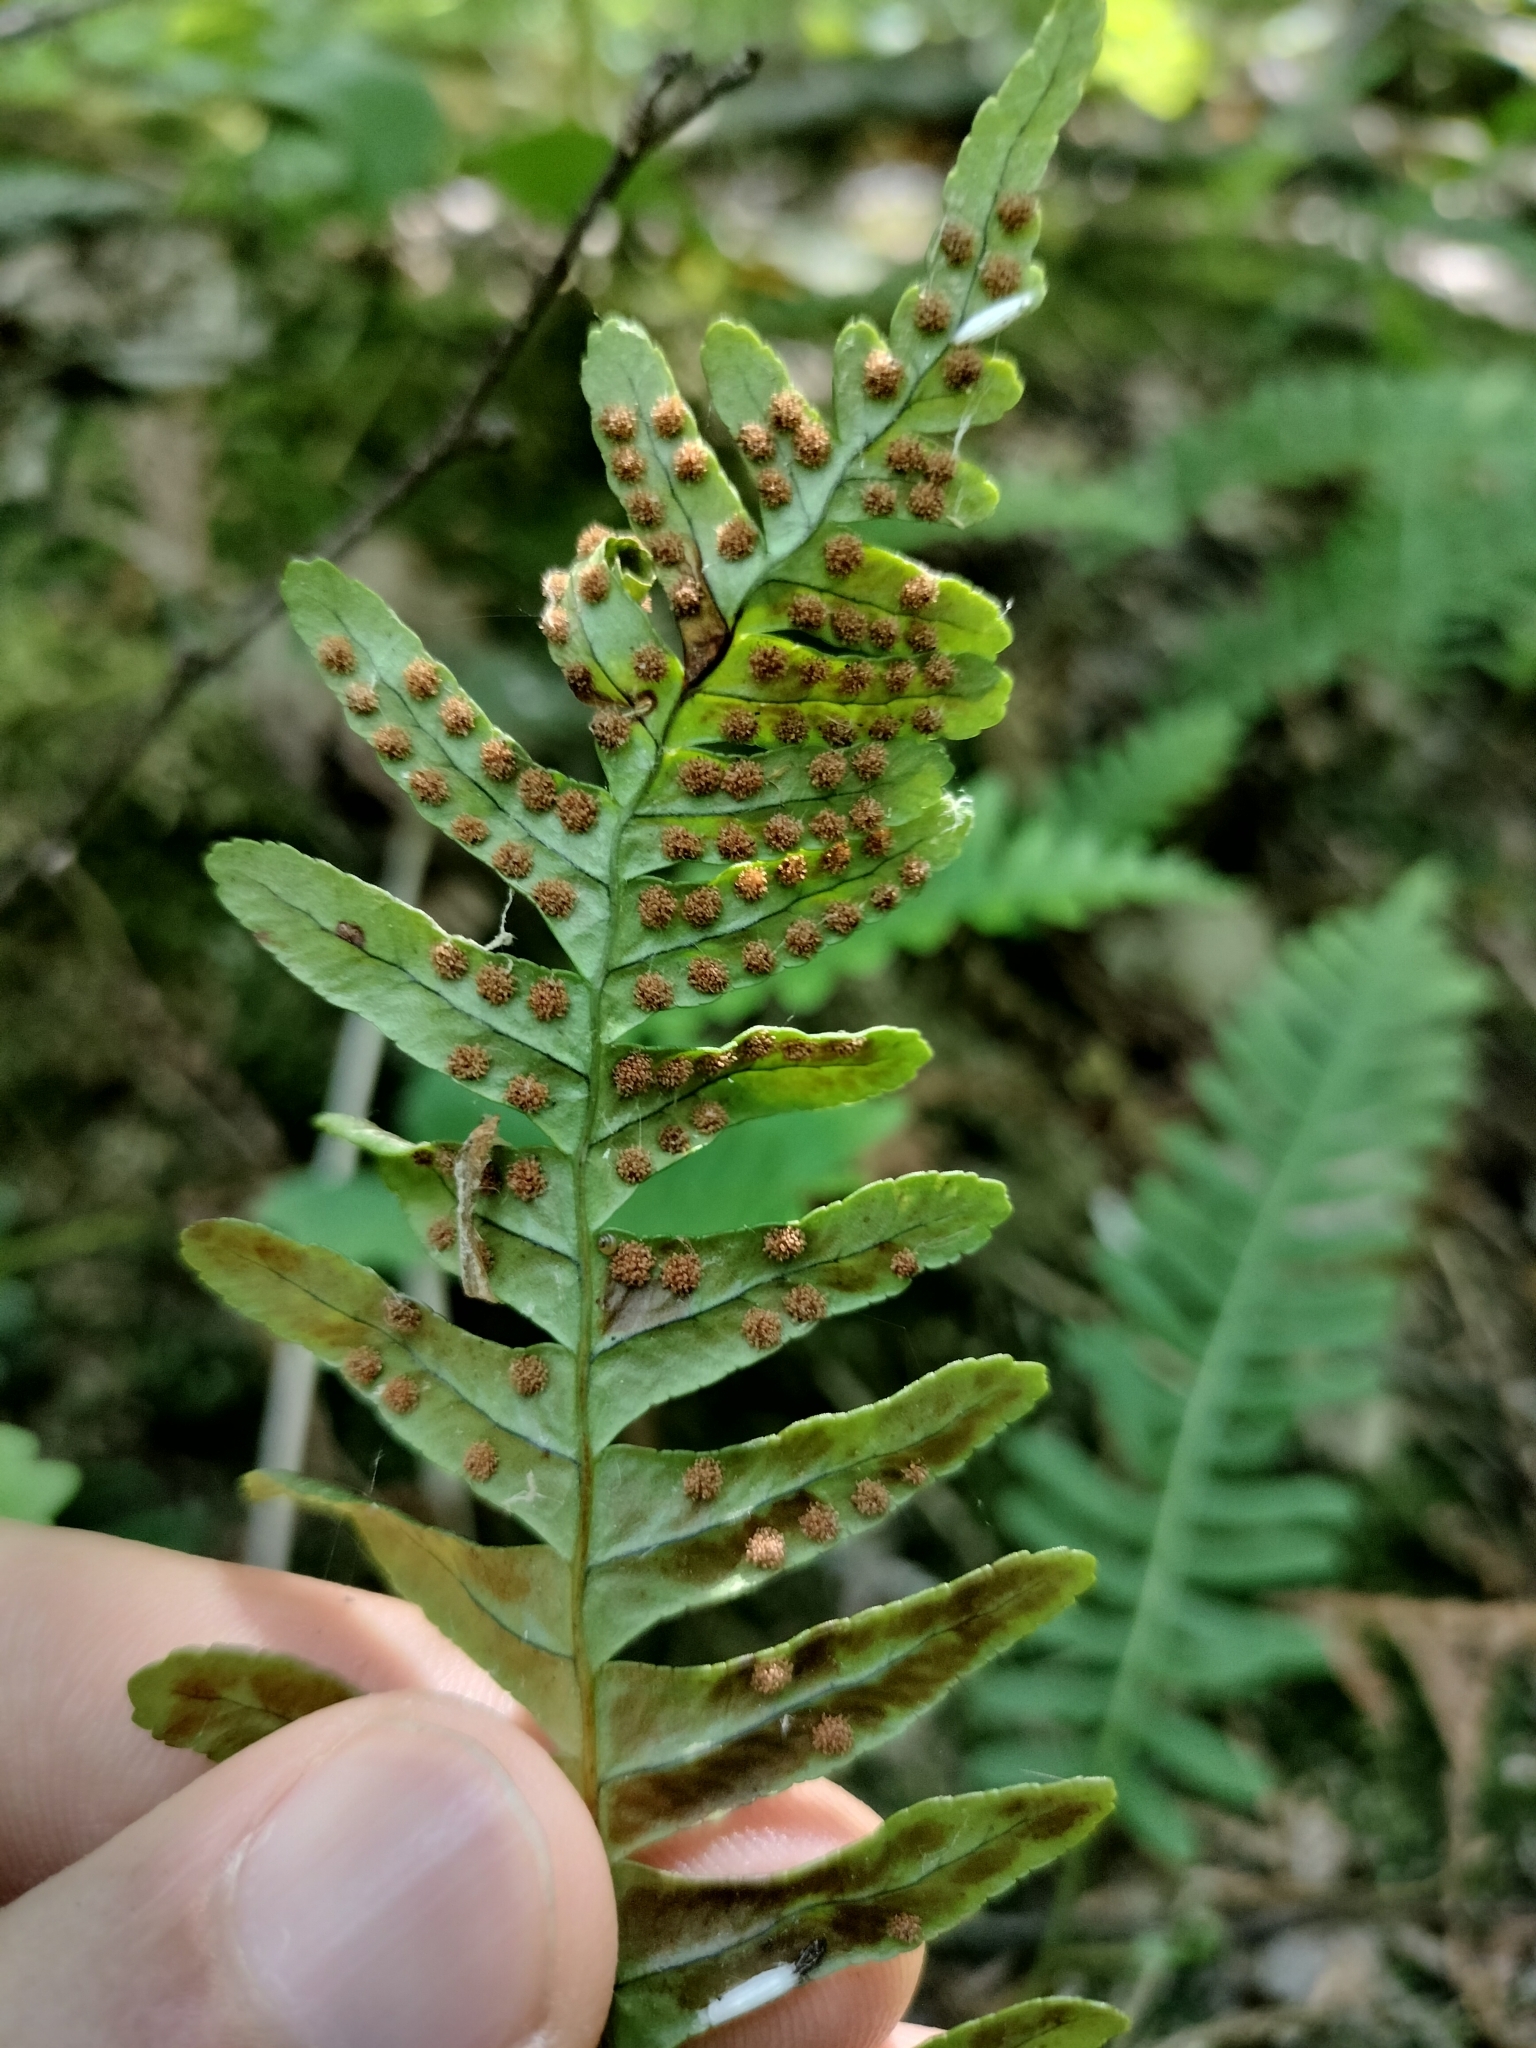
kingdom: Plantae
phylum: Tracheophyta
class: Polypodiopsida
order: Polypodiales
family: Polypodiaceae
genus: Polypodium
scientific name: Polypodium virginianum
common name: American wall fern
